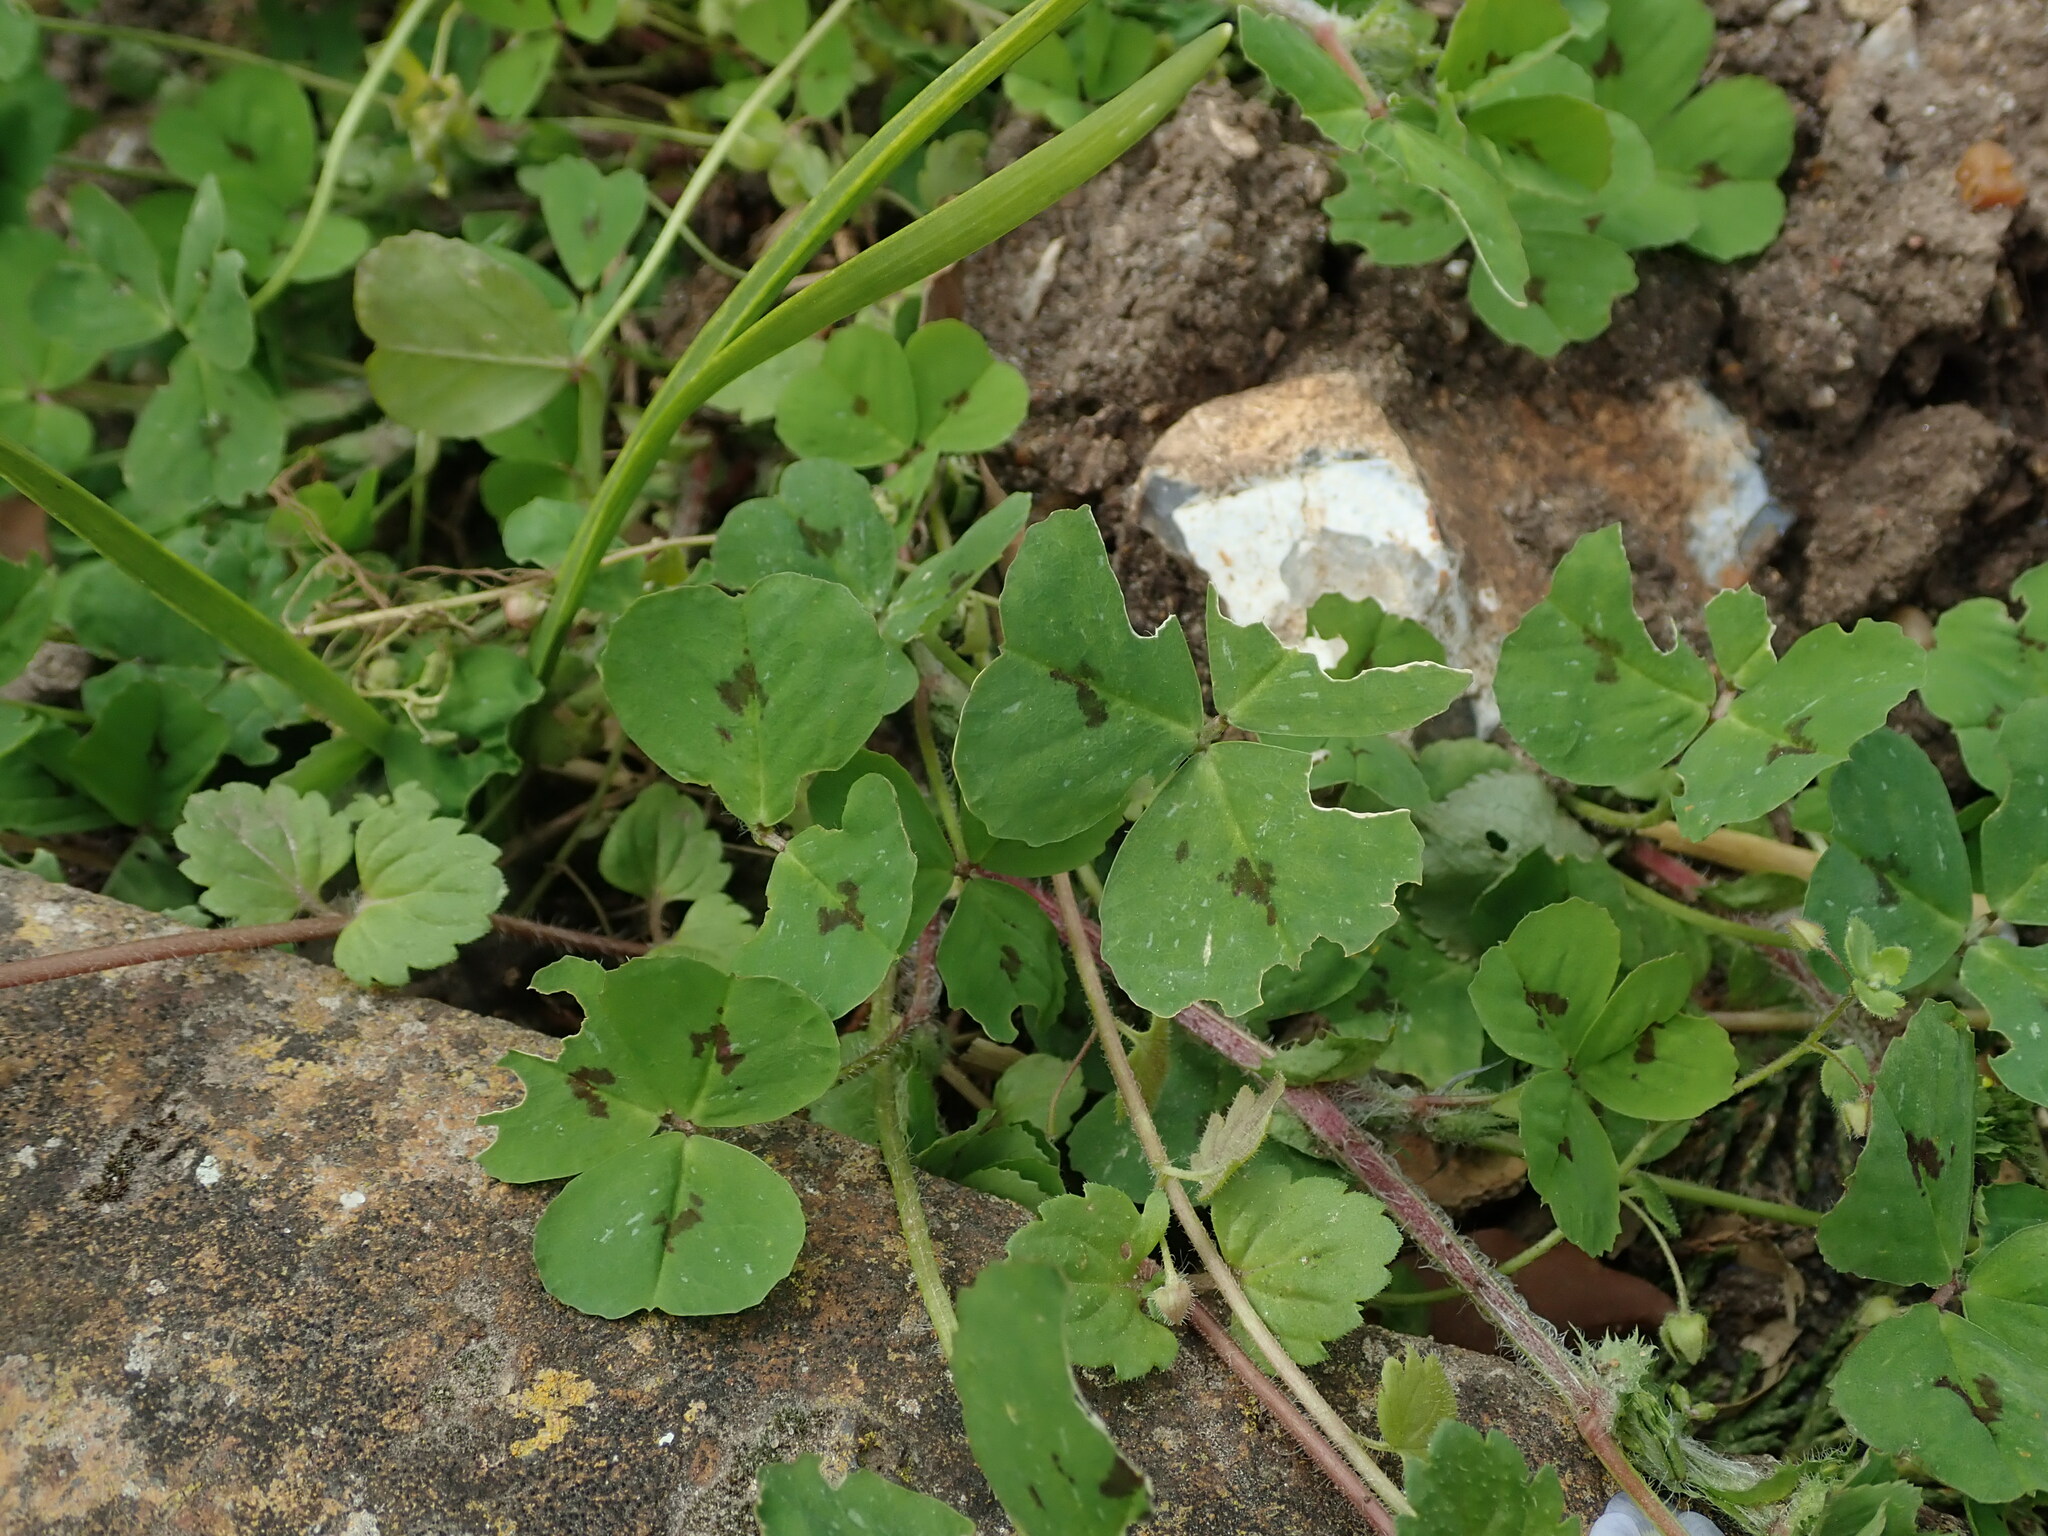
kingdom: Plantae
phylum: Tracheophyta
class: Magnoliopsida
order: Fabales
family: Fabaceae
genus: Medicago
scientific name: Medicago arabica
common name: Spotted medick
